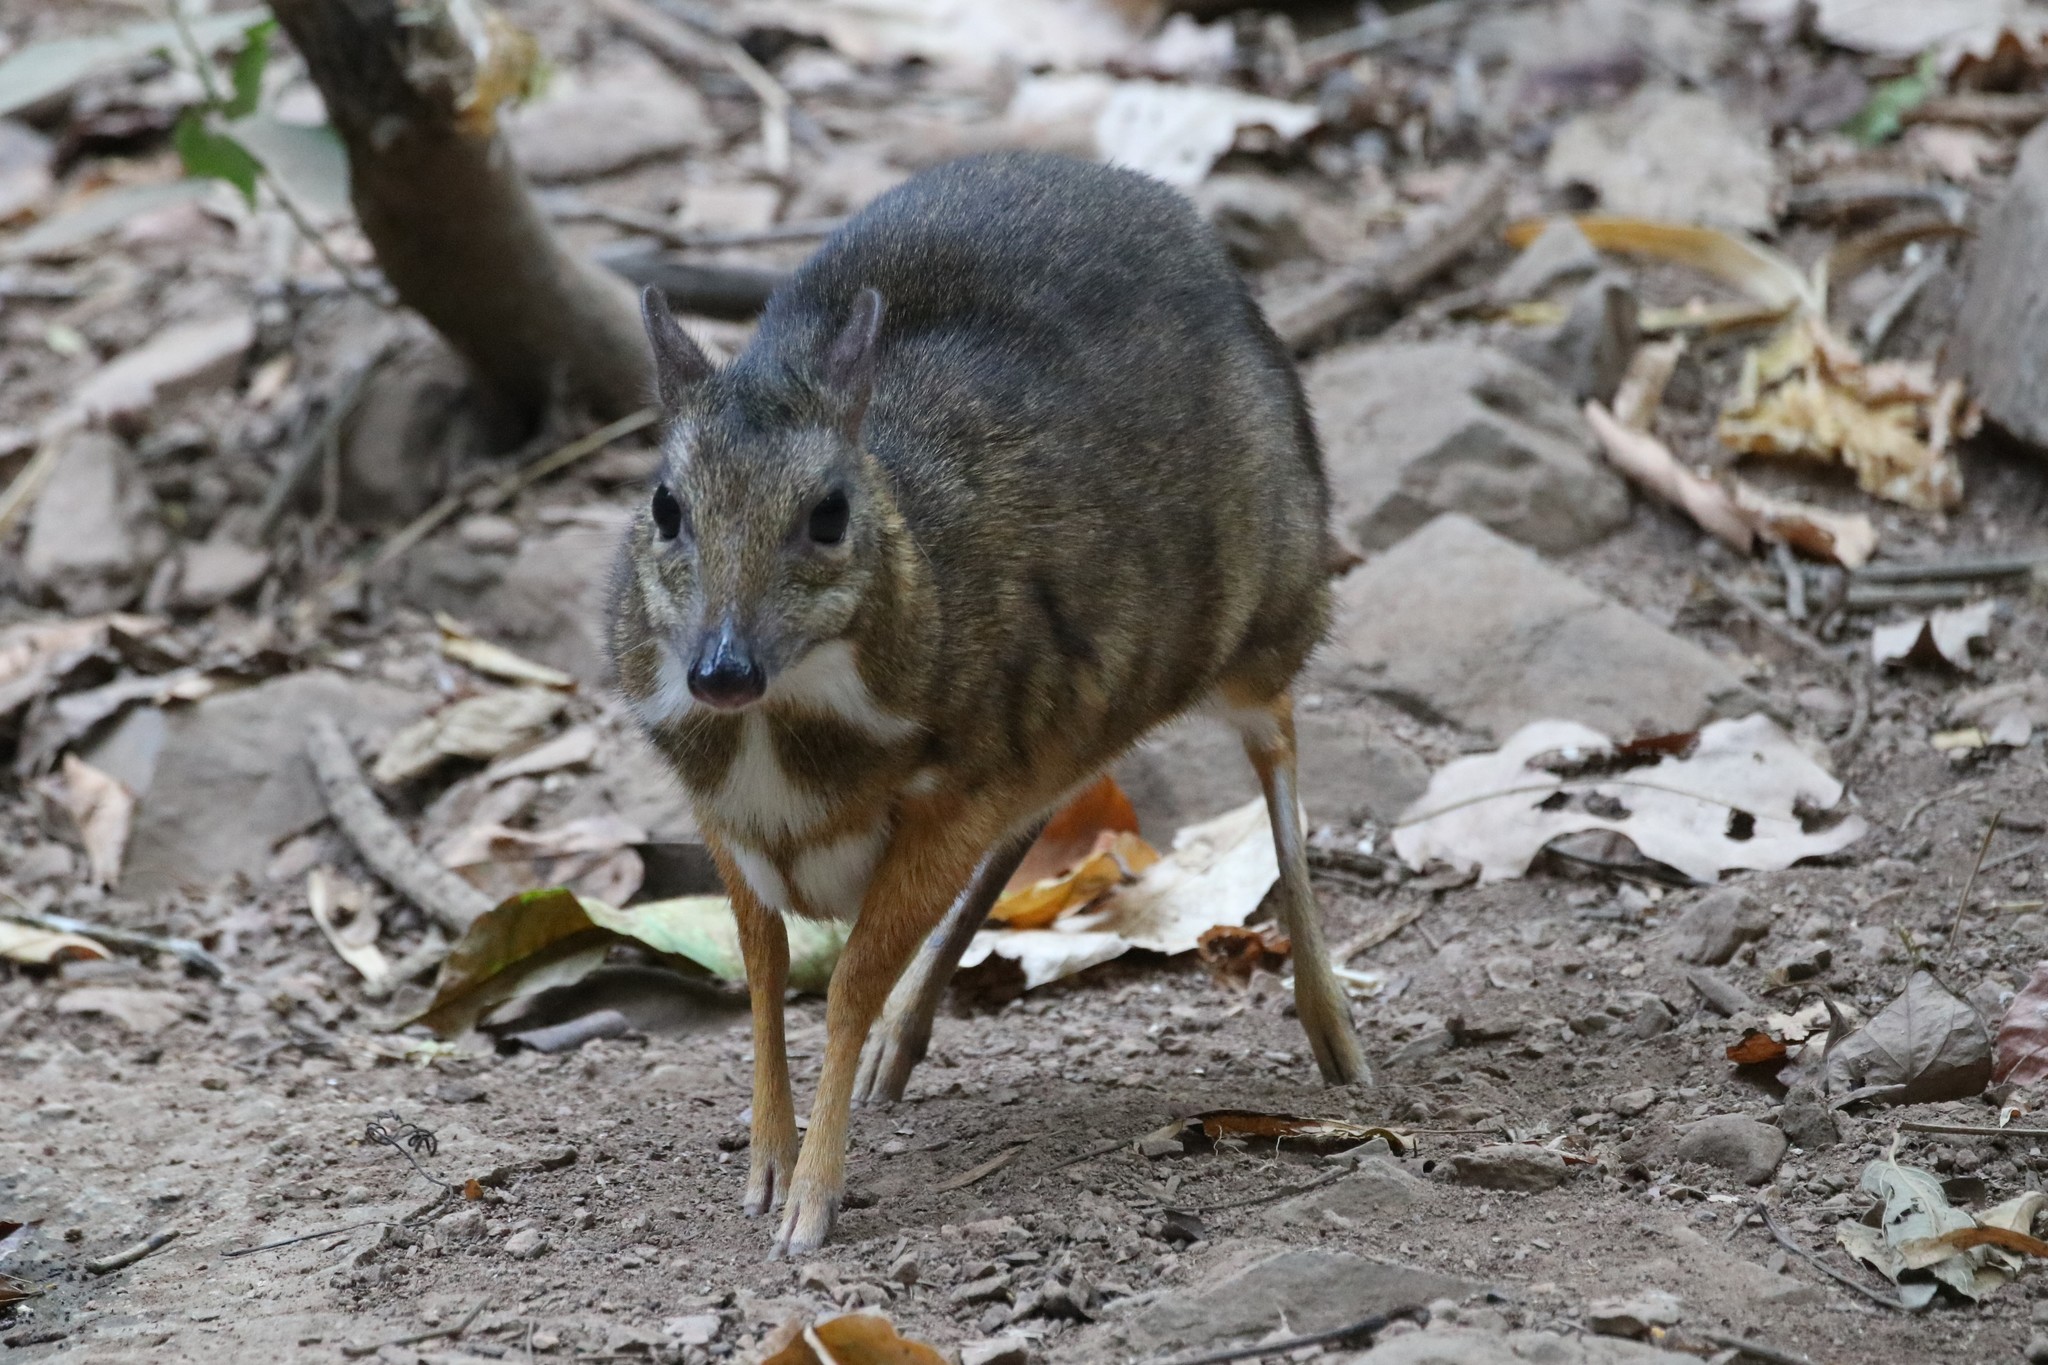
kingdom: Animalia
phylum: Chordata
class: Mammalia
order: Artiodactyla
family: Tragulidae
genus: Tragulus
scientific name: Tragulus kanchil
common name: Lesser mouse-deer
